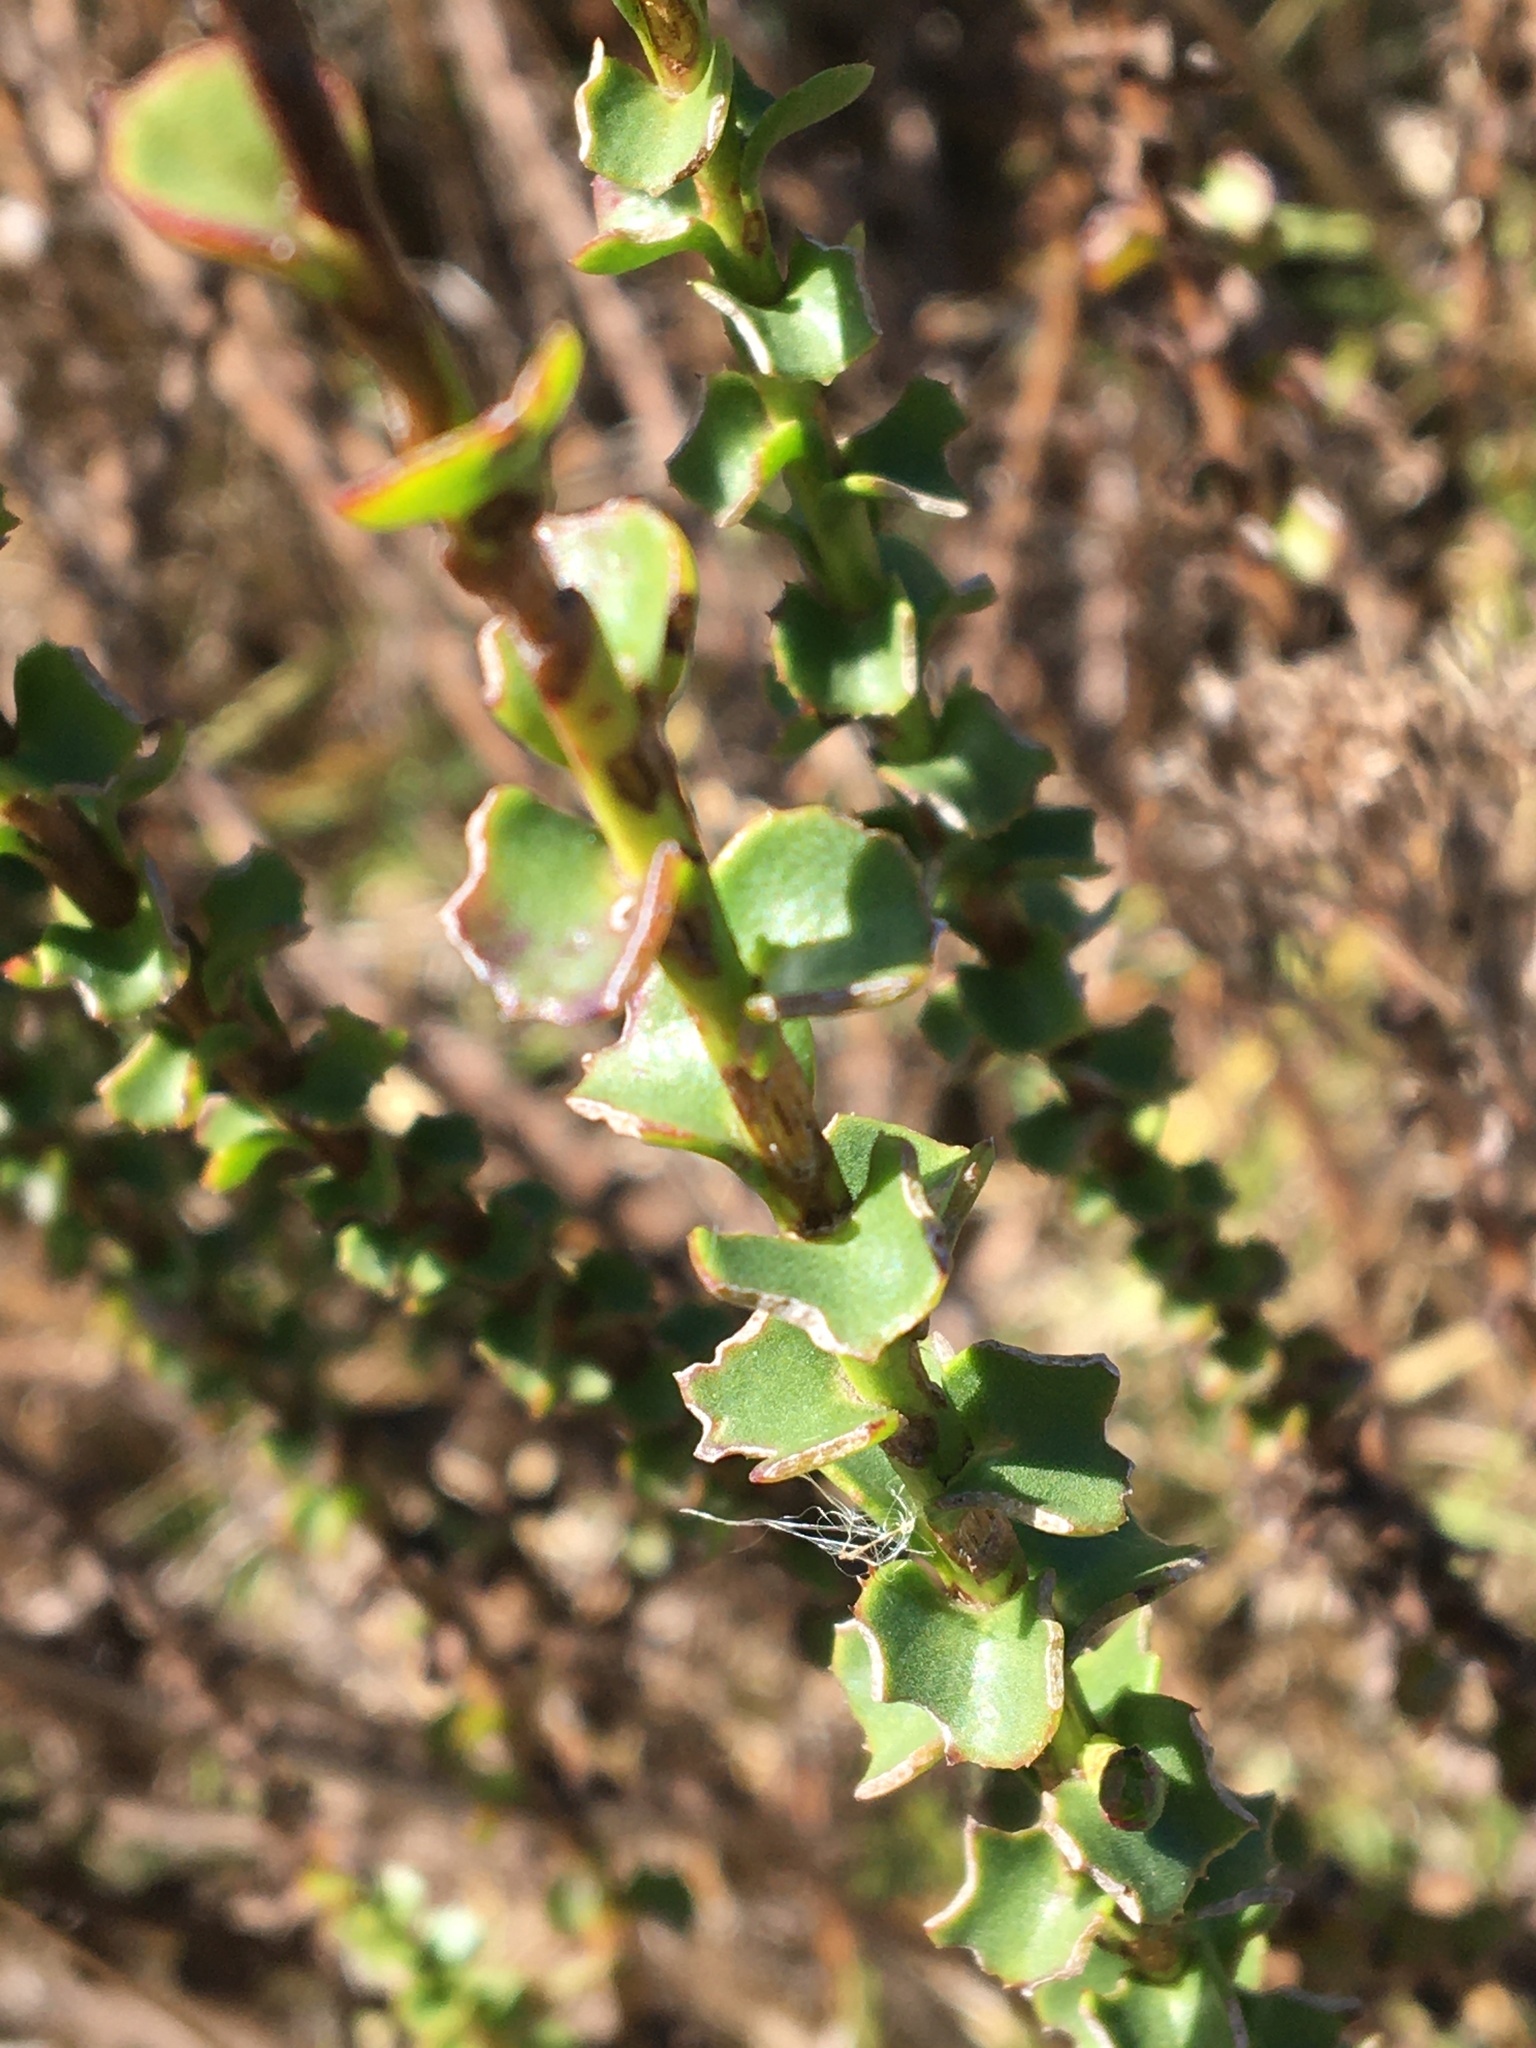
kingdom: Plantae
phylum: Tracheophyta
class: Magnoliopsida
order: Asterales
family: Asteraceae
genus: Athanasia
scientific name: Athanasia dentata
